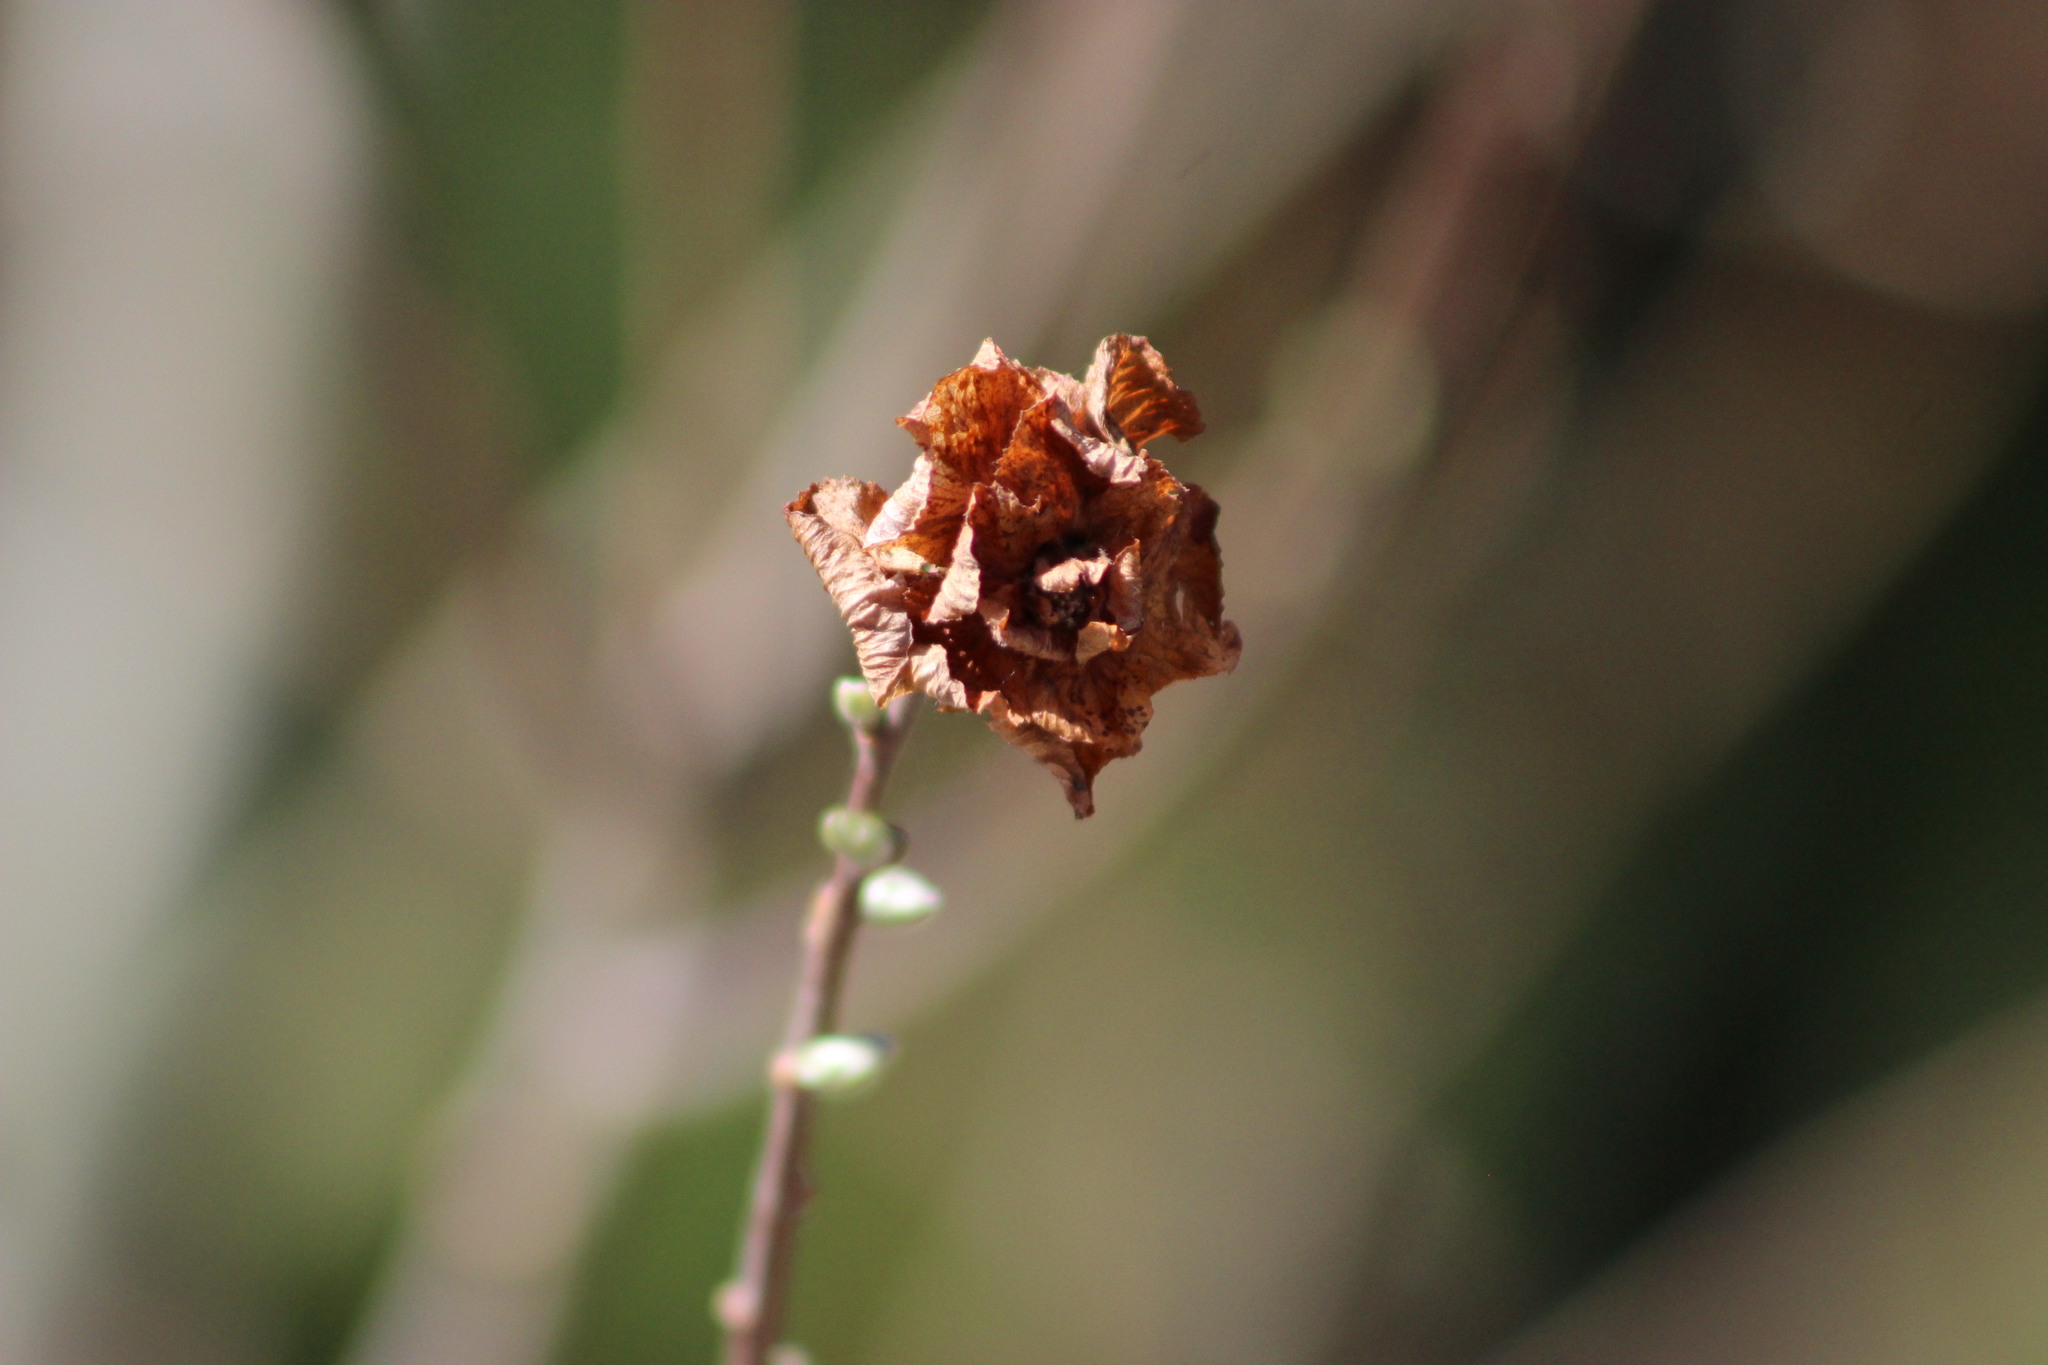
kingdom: Animalia
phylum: Arthropoda
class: Insecta
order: Diptera
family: Cecidomyiidae
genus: Rabdophaga
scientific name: Rabdophaga rosaria
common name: Willow rose gall midge
